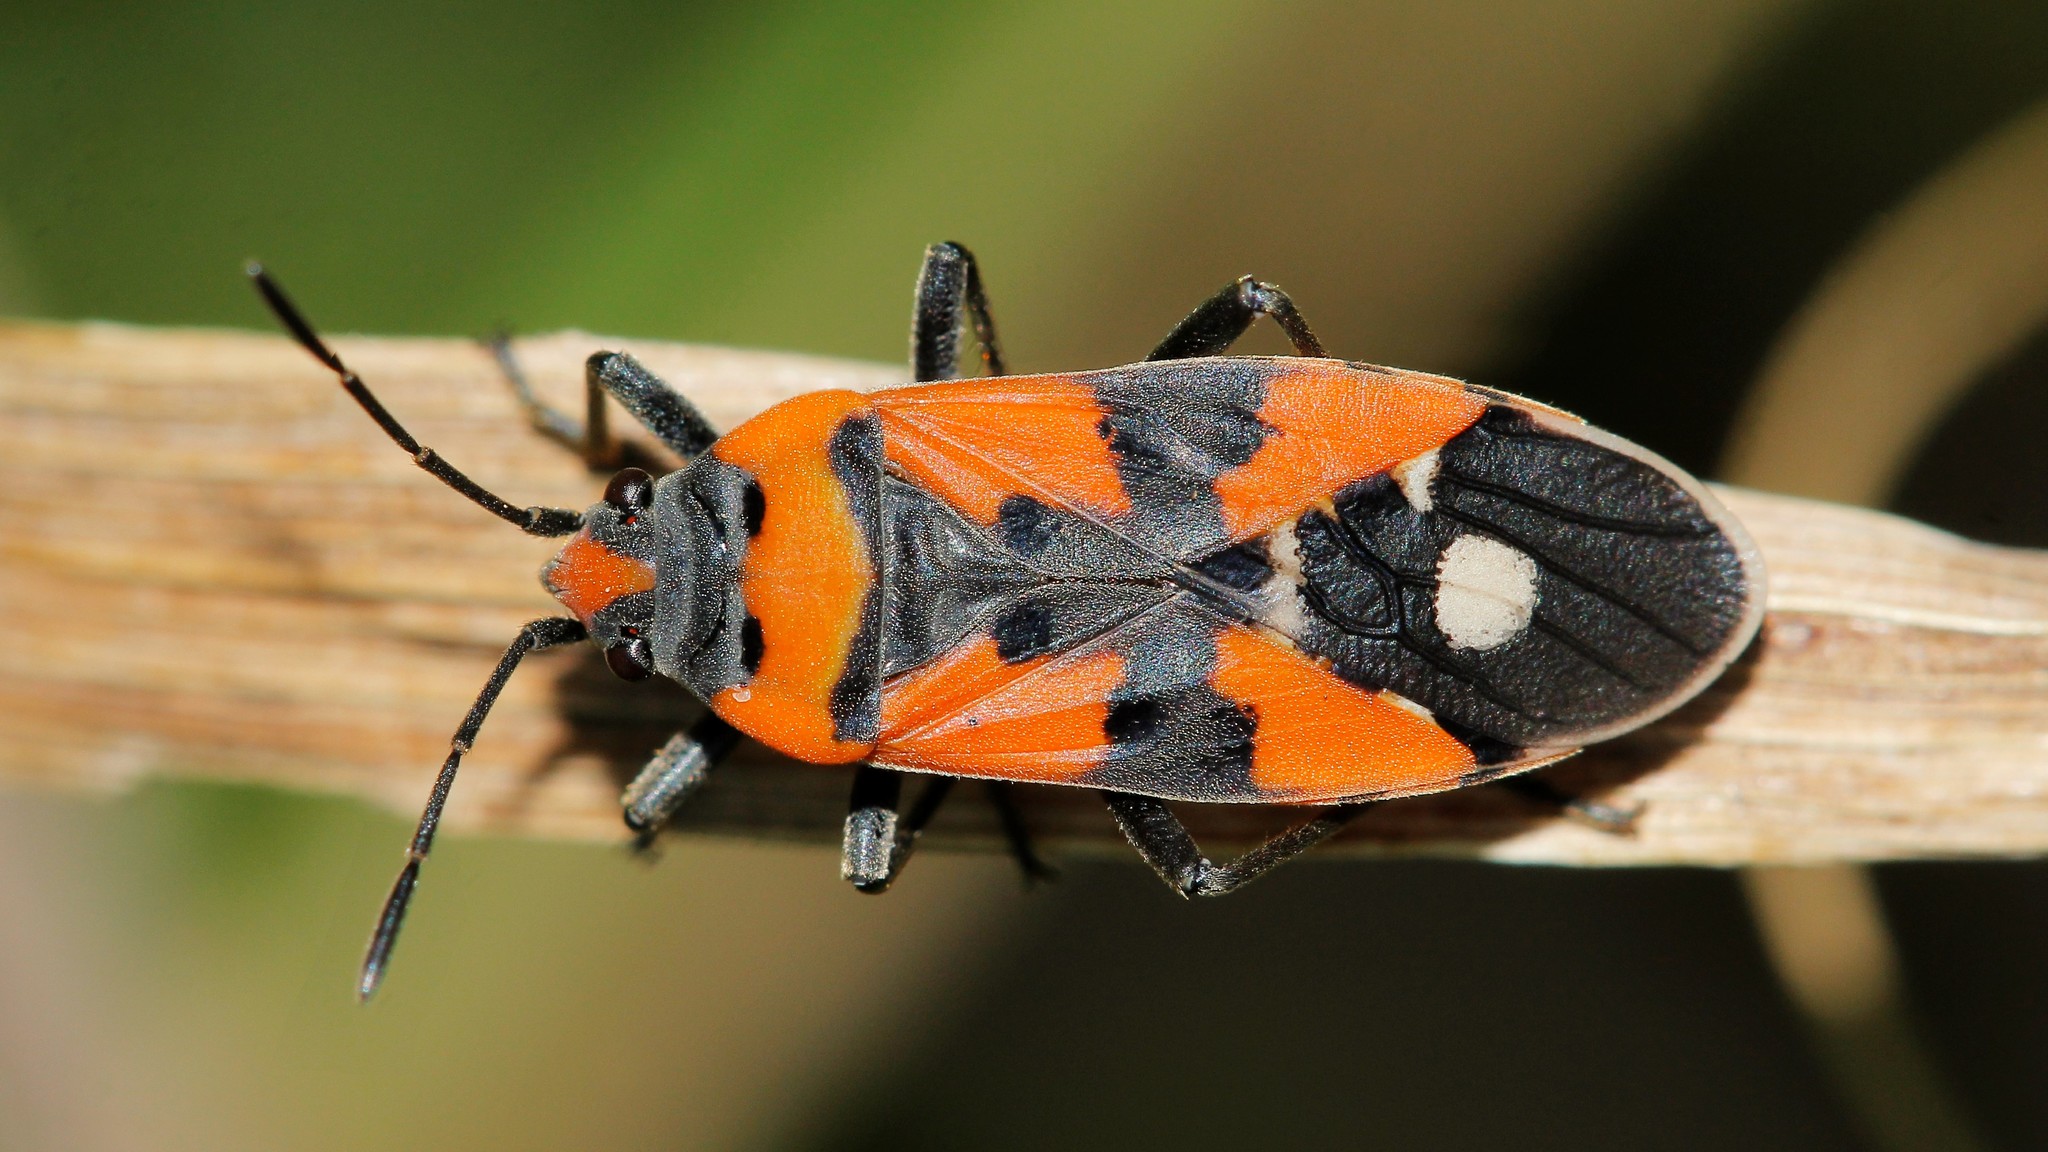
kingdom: Animalia
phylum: Arthropoda
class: Insecta
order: Hemiptera
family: Lygaeidae
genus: Lygaeus
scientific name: Lygaeus equestris
